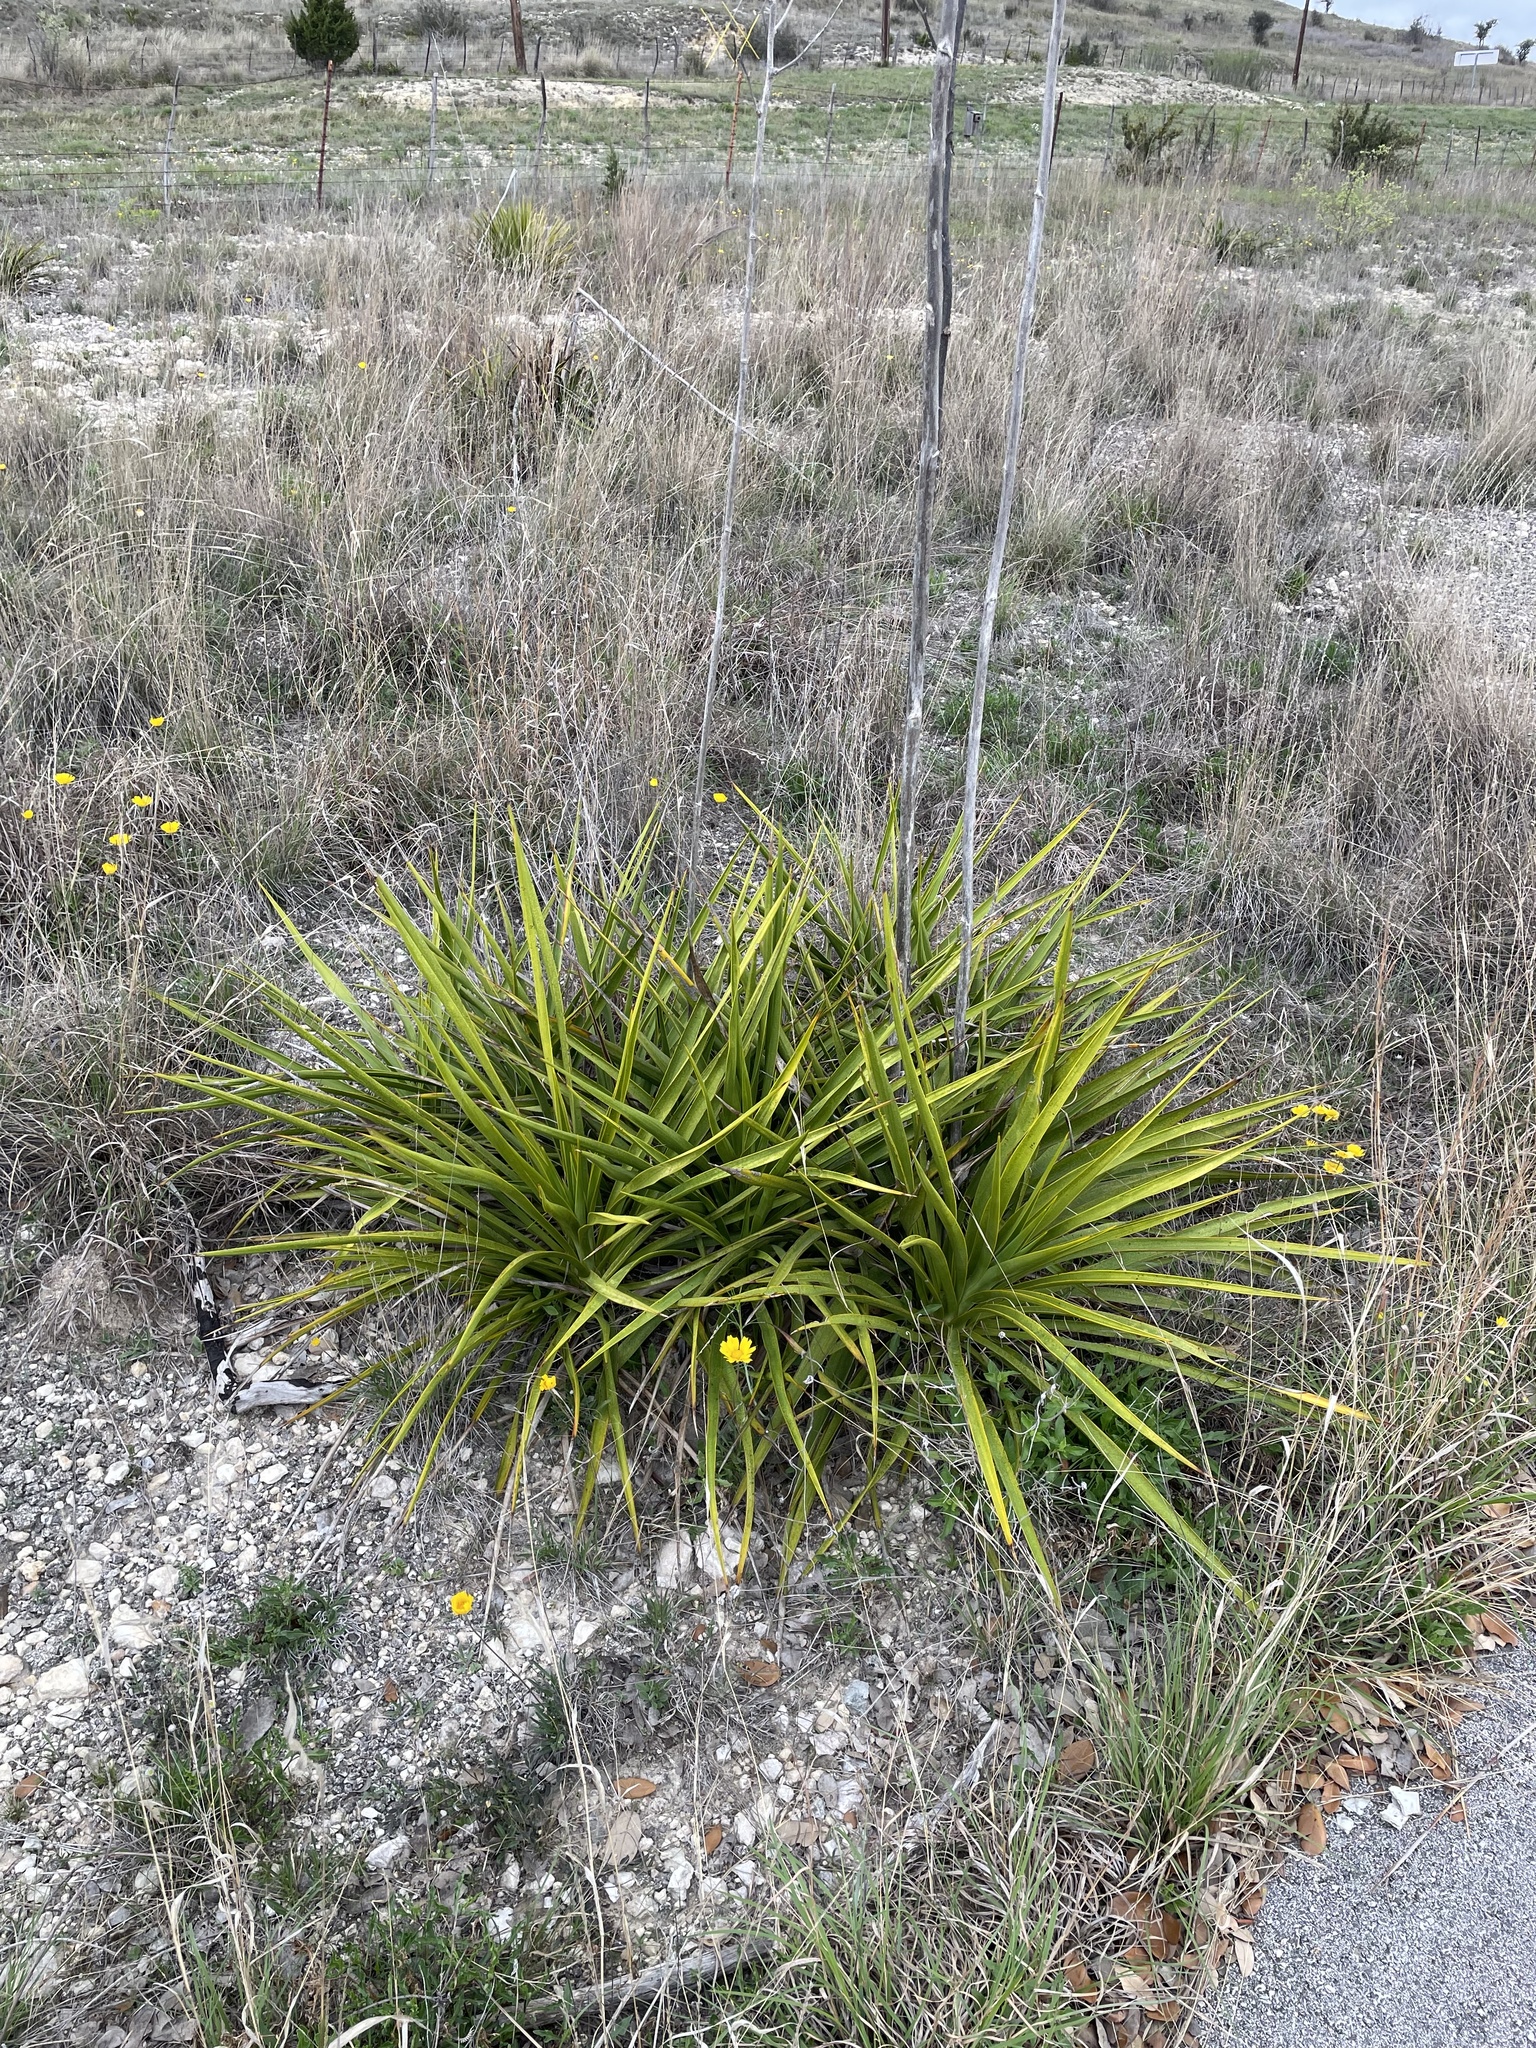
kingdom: Plantae
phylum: Tracheophyta
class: Liliopsida
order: Asparagales
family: Asparagaceae
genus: Yucca
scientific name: Yucca rupicola
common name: Twisted-leaf spanish-dagger
